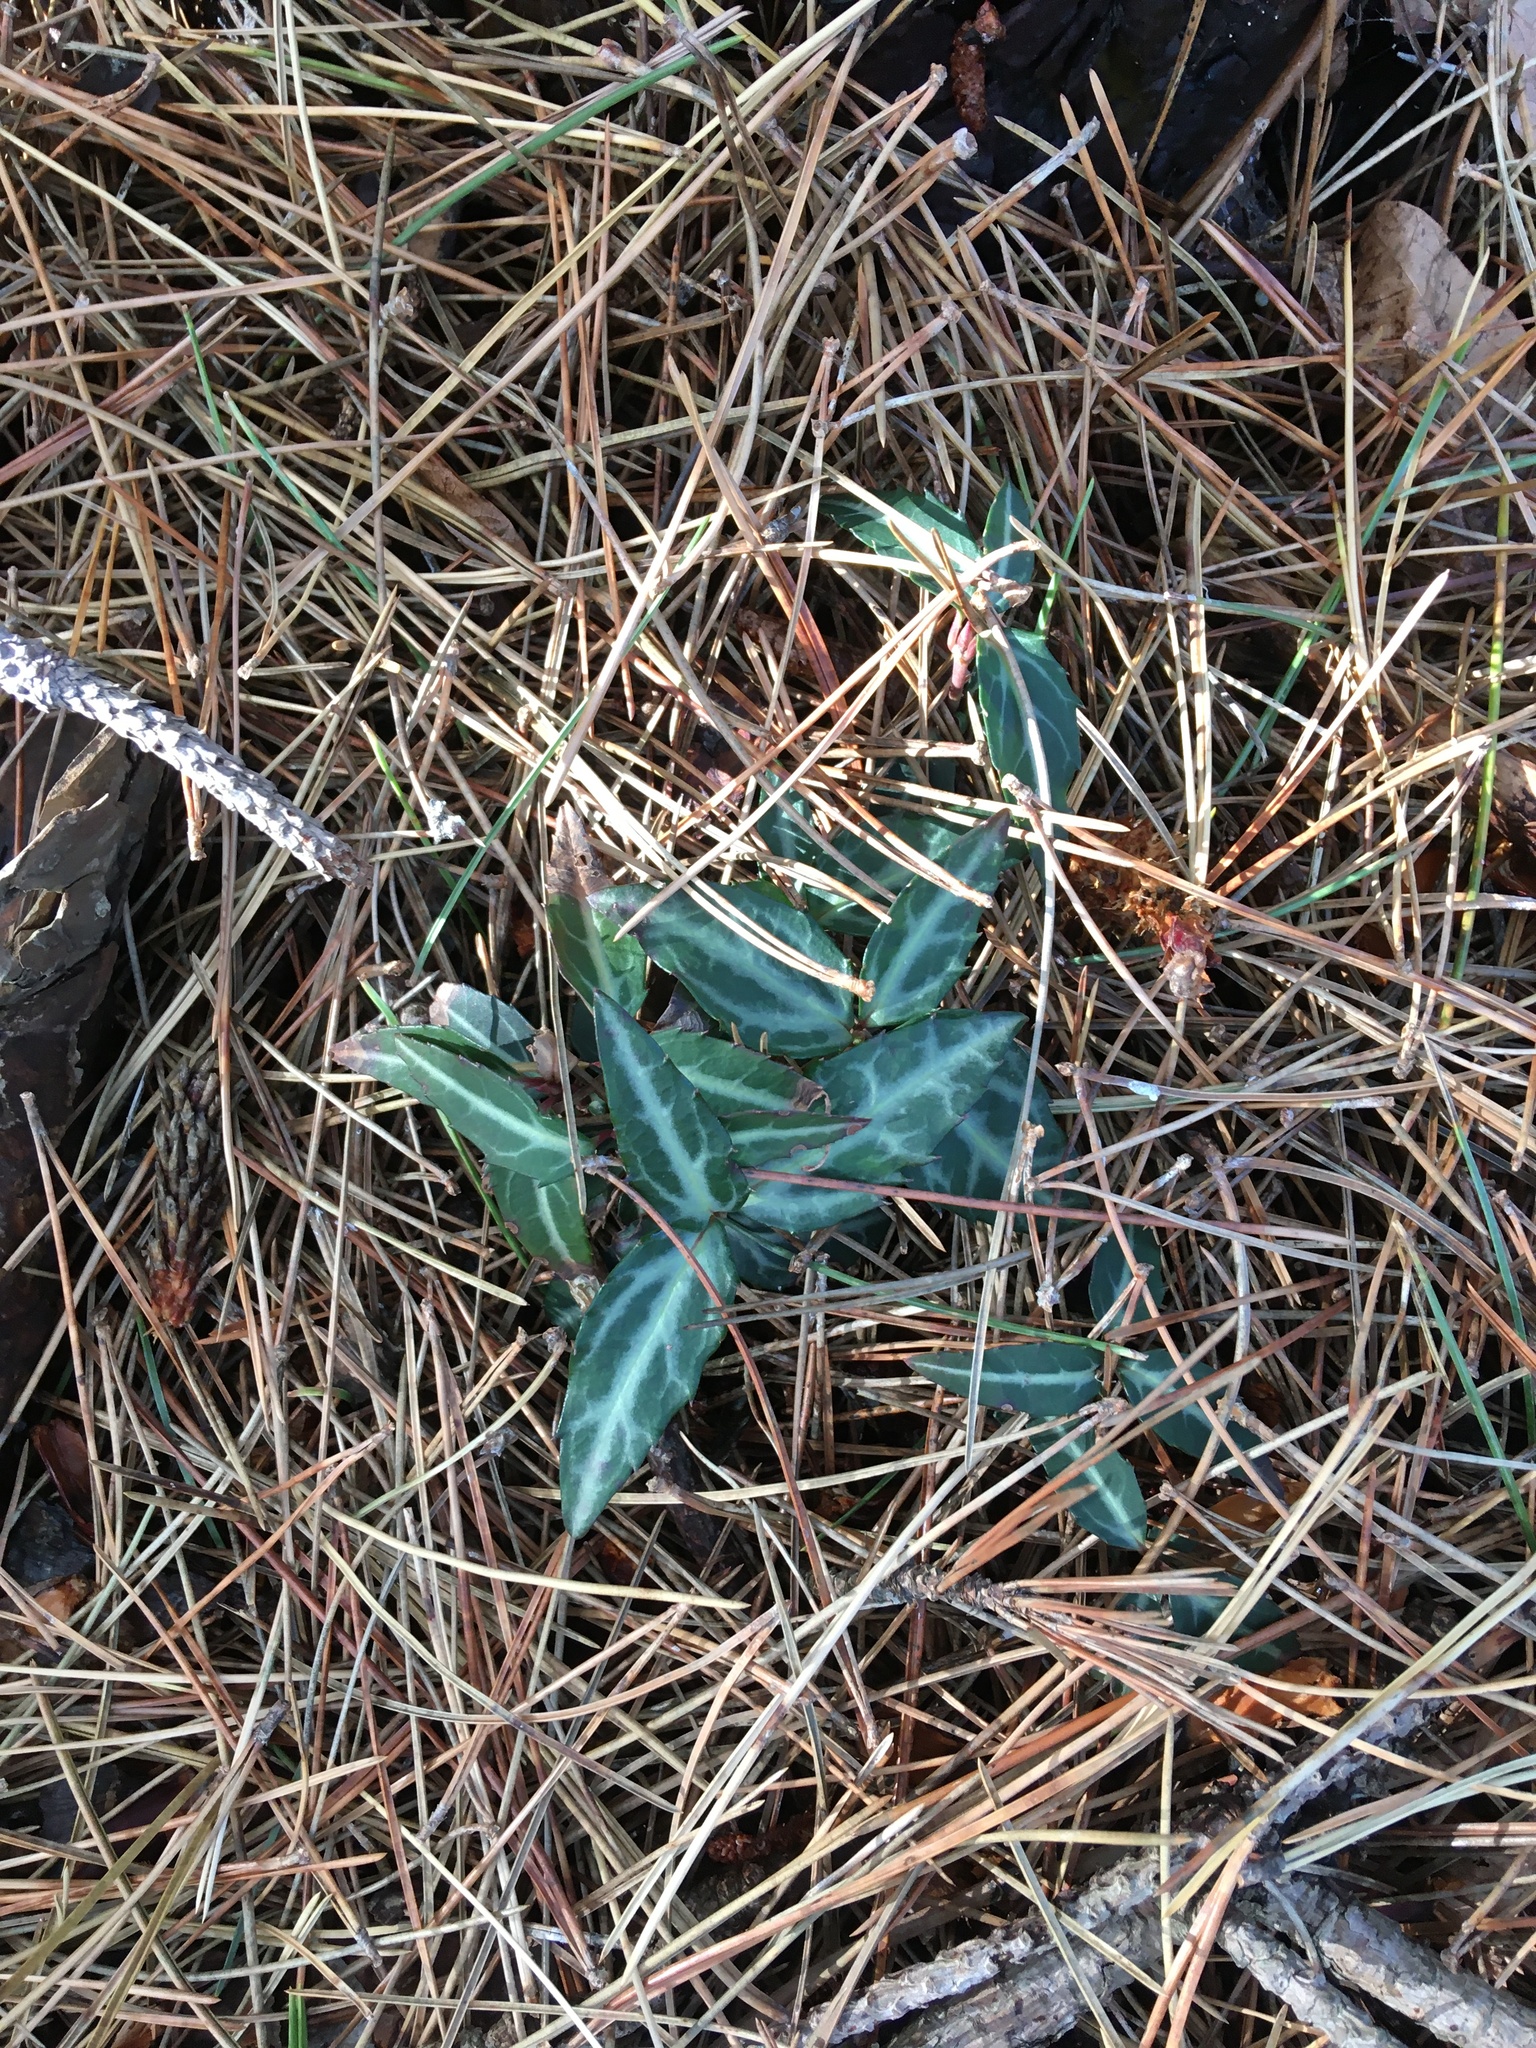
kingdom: Plantae
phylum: Tracheophyta
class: Magnoliopsida
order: Ericales
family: Ericaceae
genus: Chimaphila
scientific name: Chimaphila maculata
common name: Spotted pipsissewa
